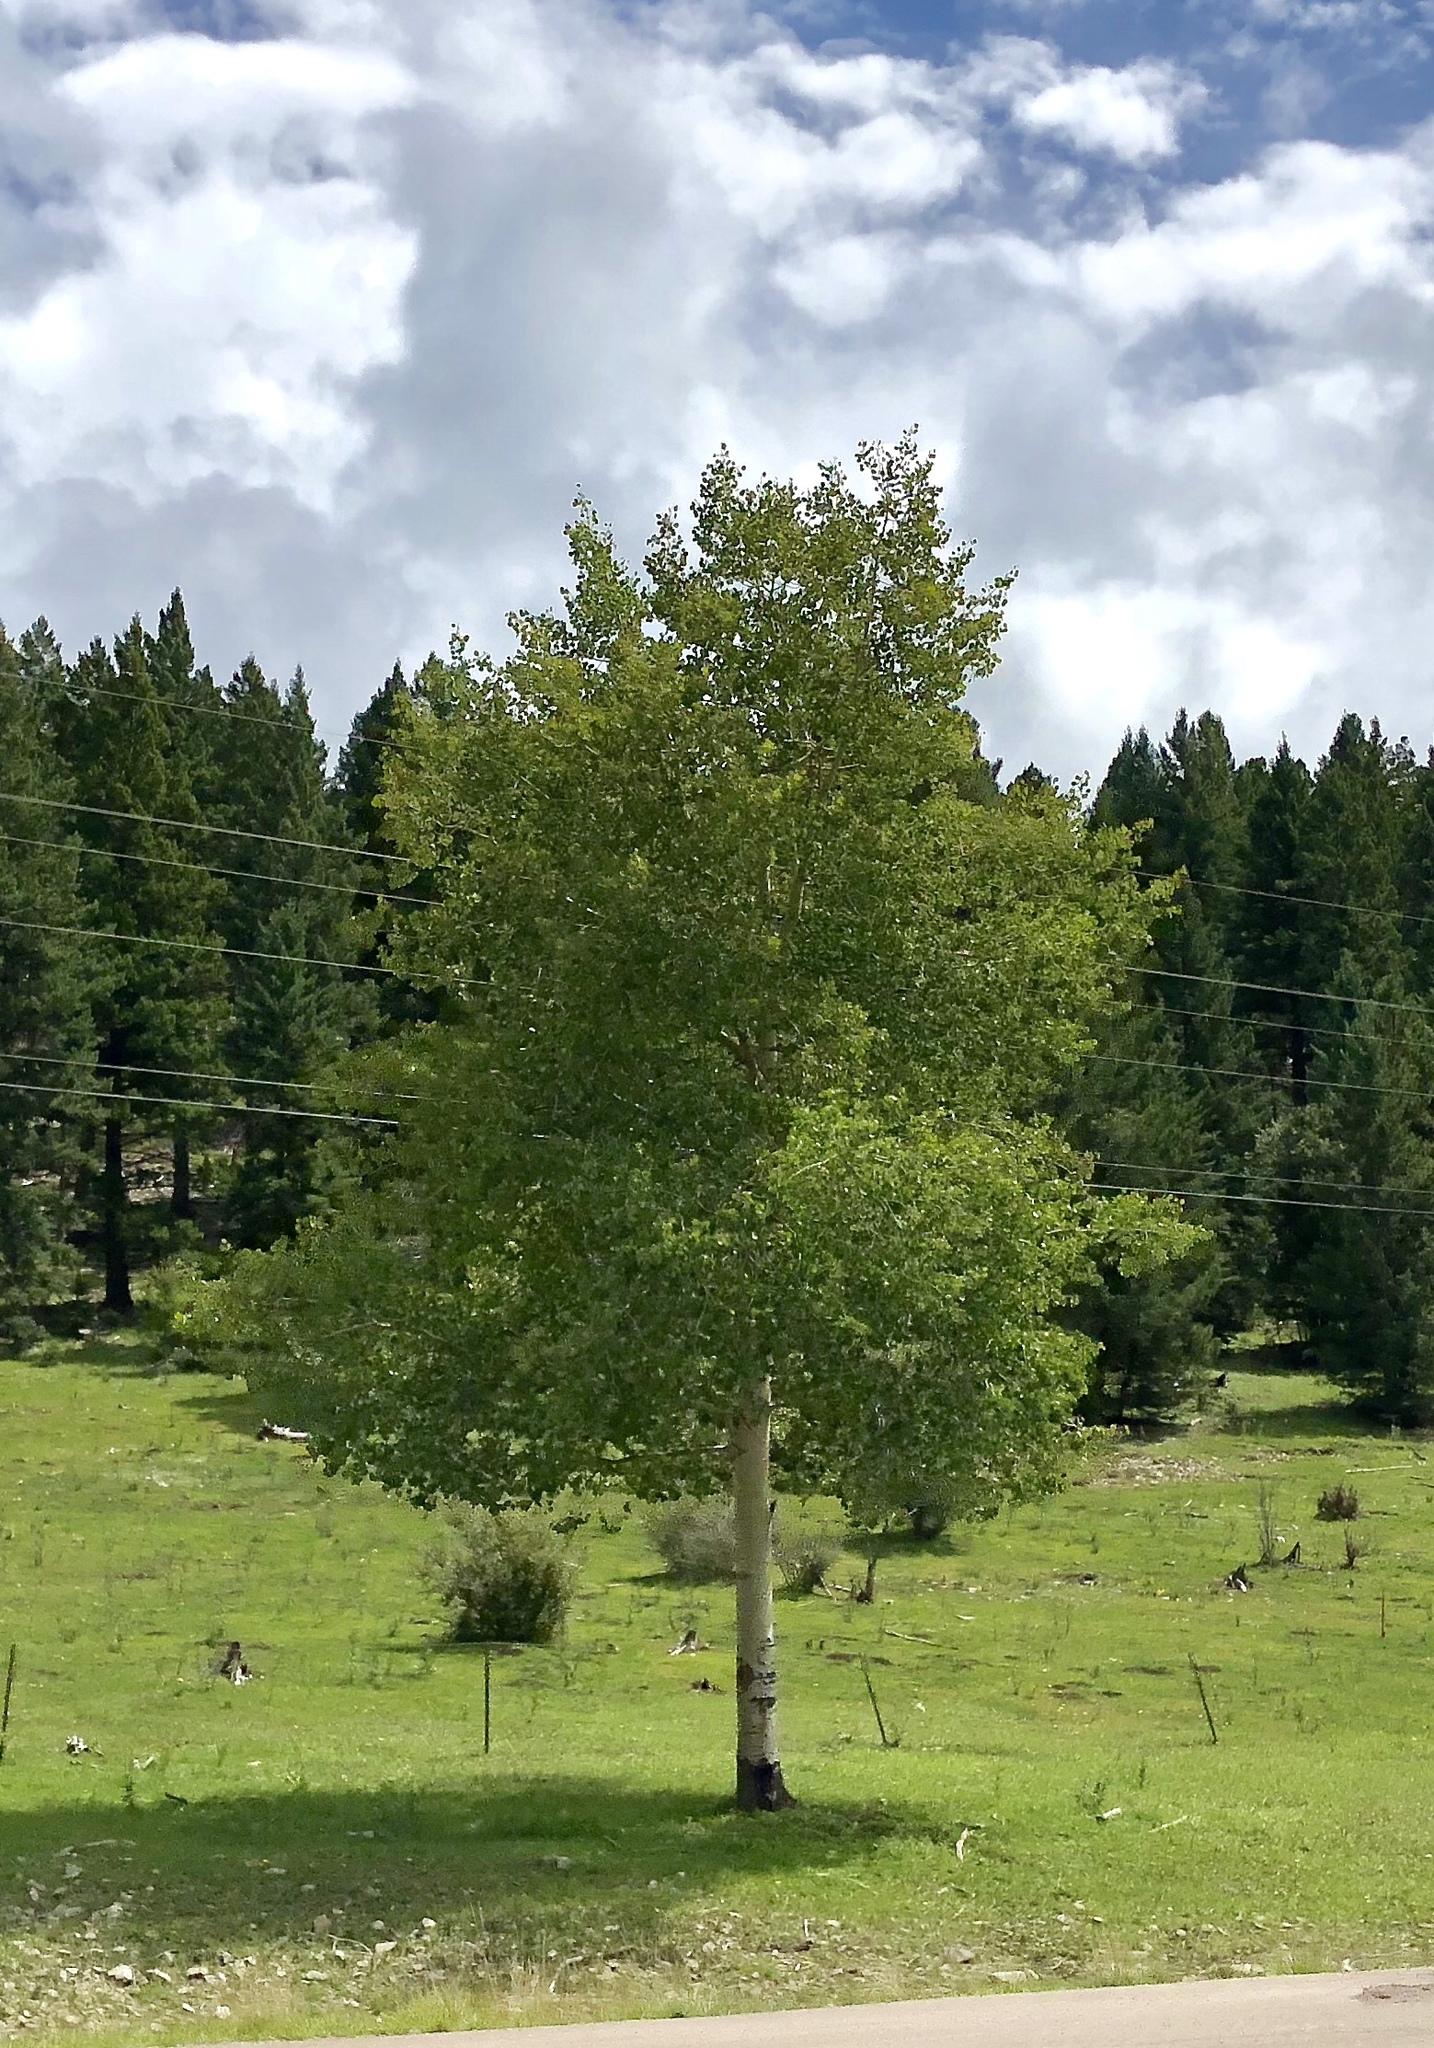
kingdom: Plantae
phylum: Tracheophyta
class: Magnoliopsida
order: Malpighiales
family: Salicaceae
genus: Populus
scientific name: Populus tremuloides
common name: Quaking aspen
